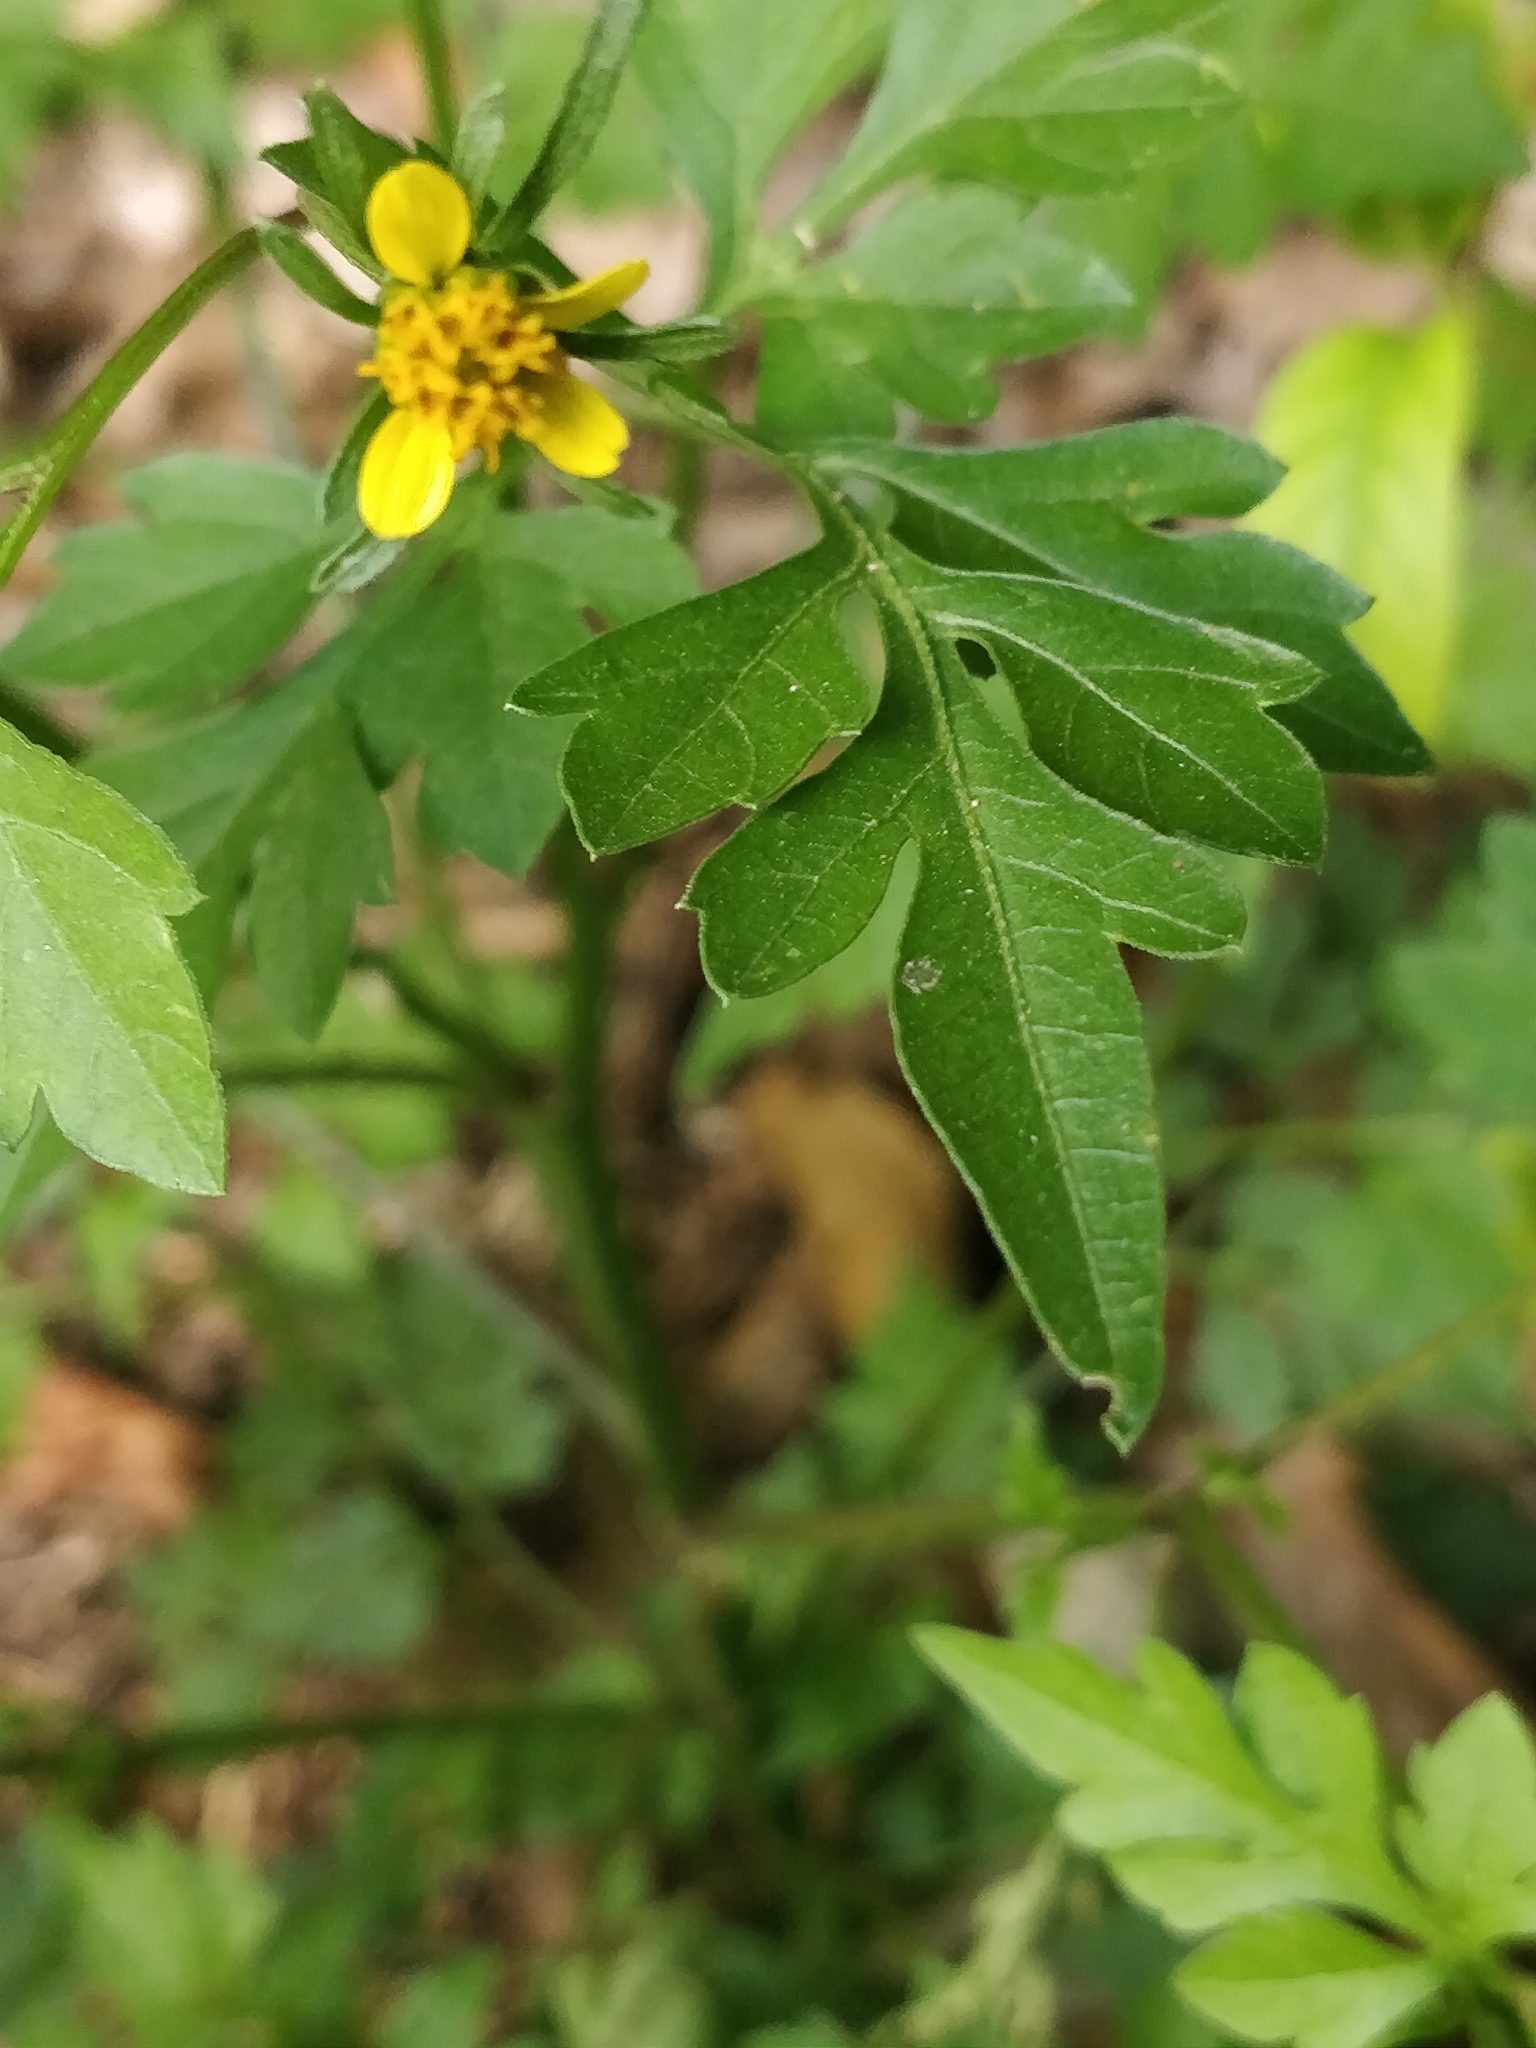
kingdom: Plantae
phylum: Tracheophyta
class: Magnoliopsida
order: Asterales
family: Asteraceae
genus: Bidens
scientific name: Bidens bipinnata
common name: Spanish-needles
